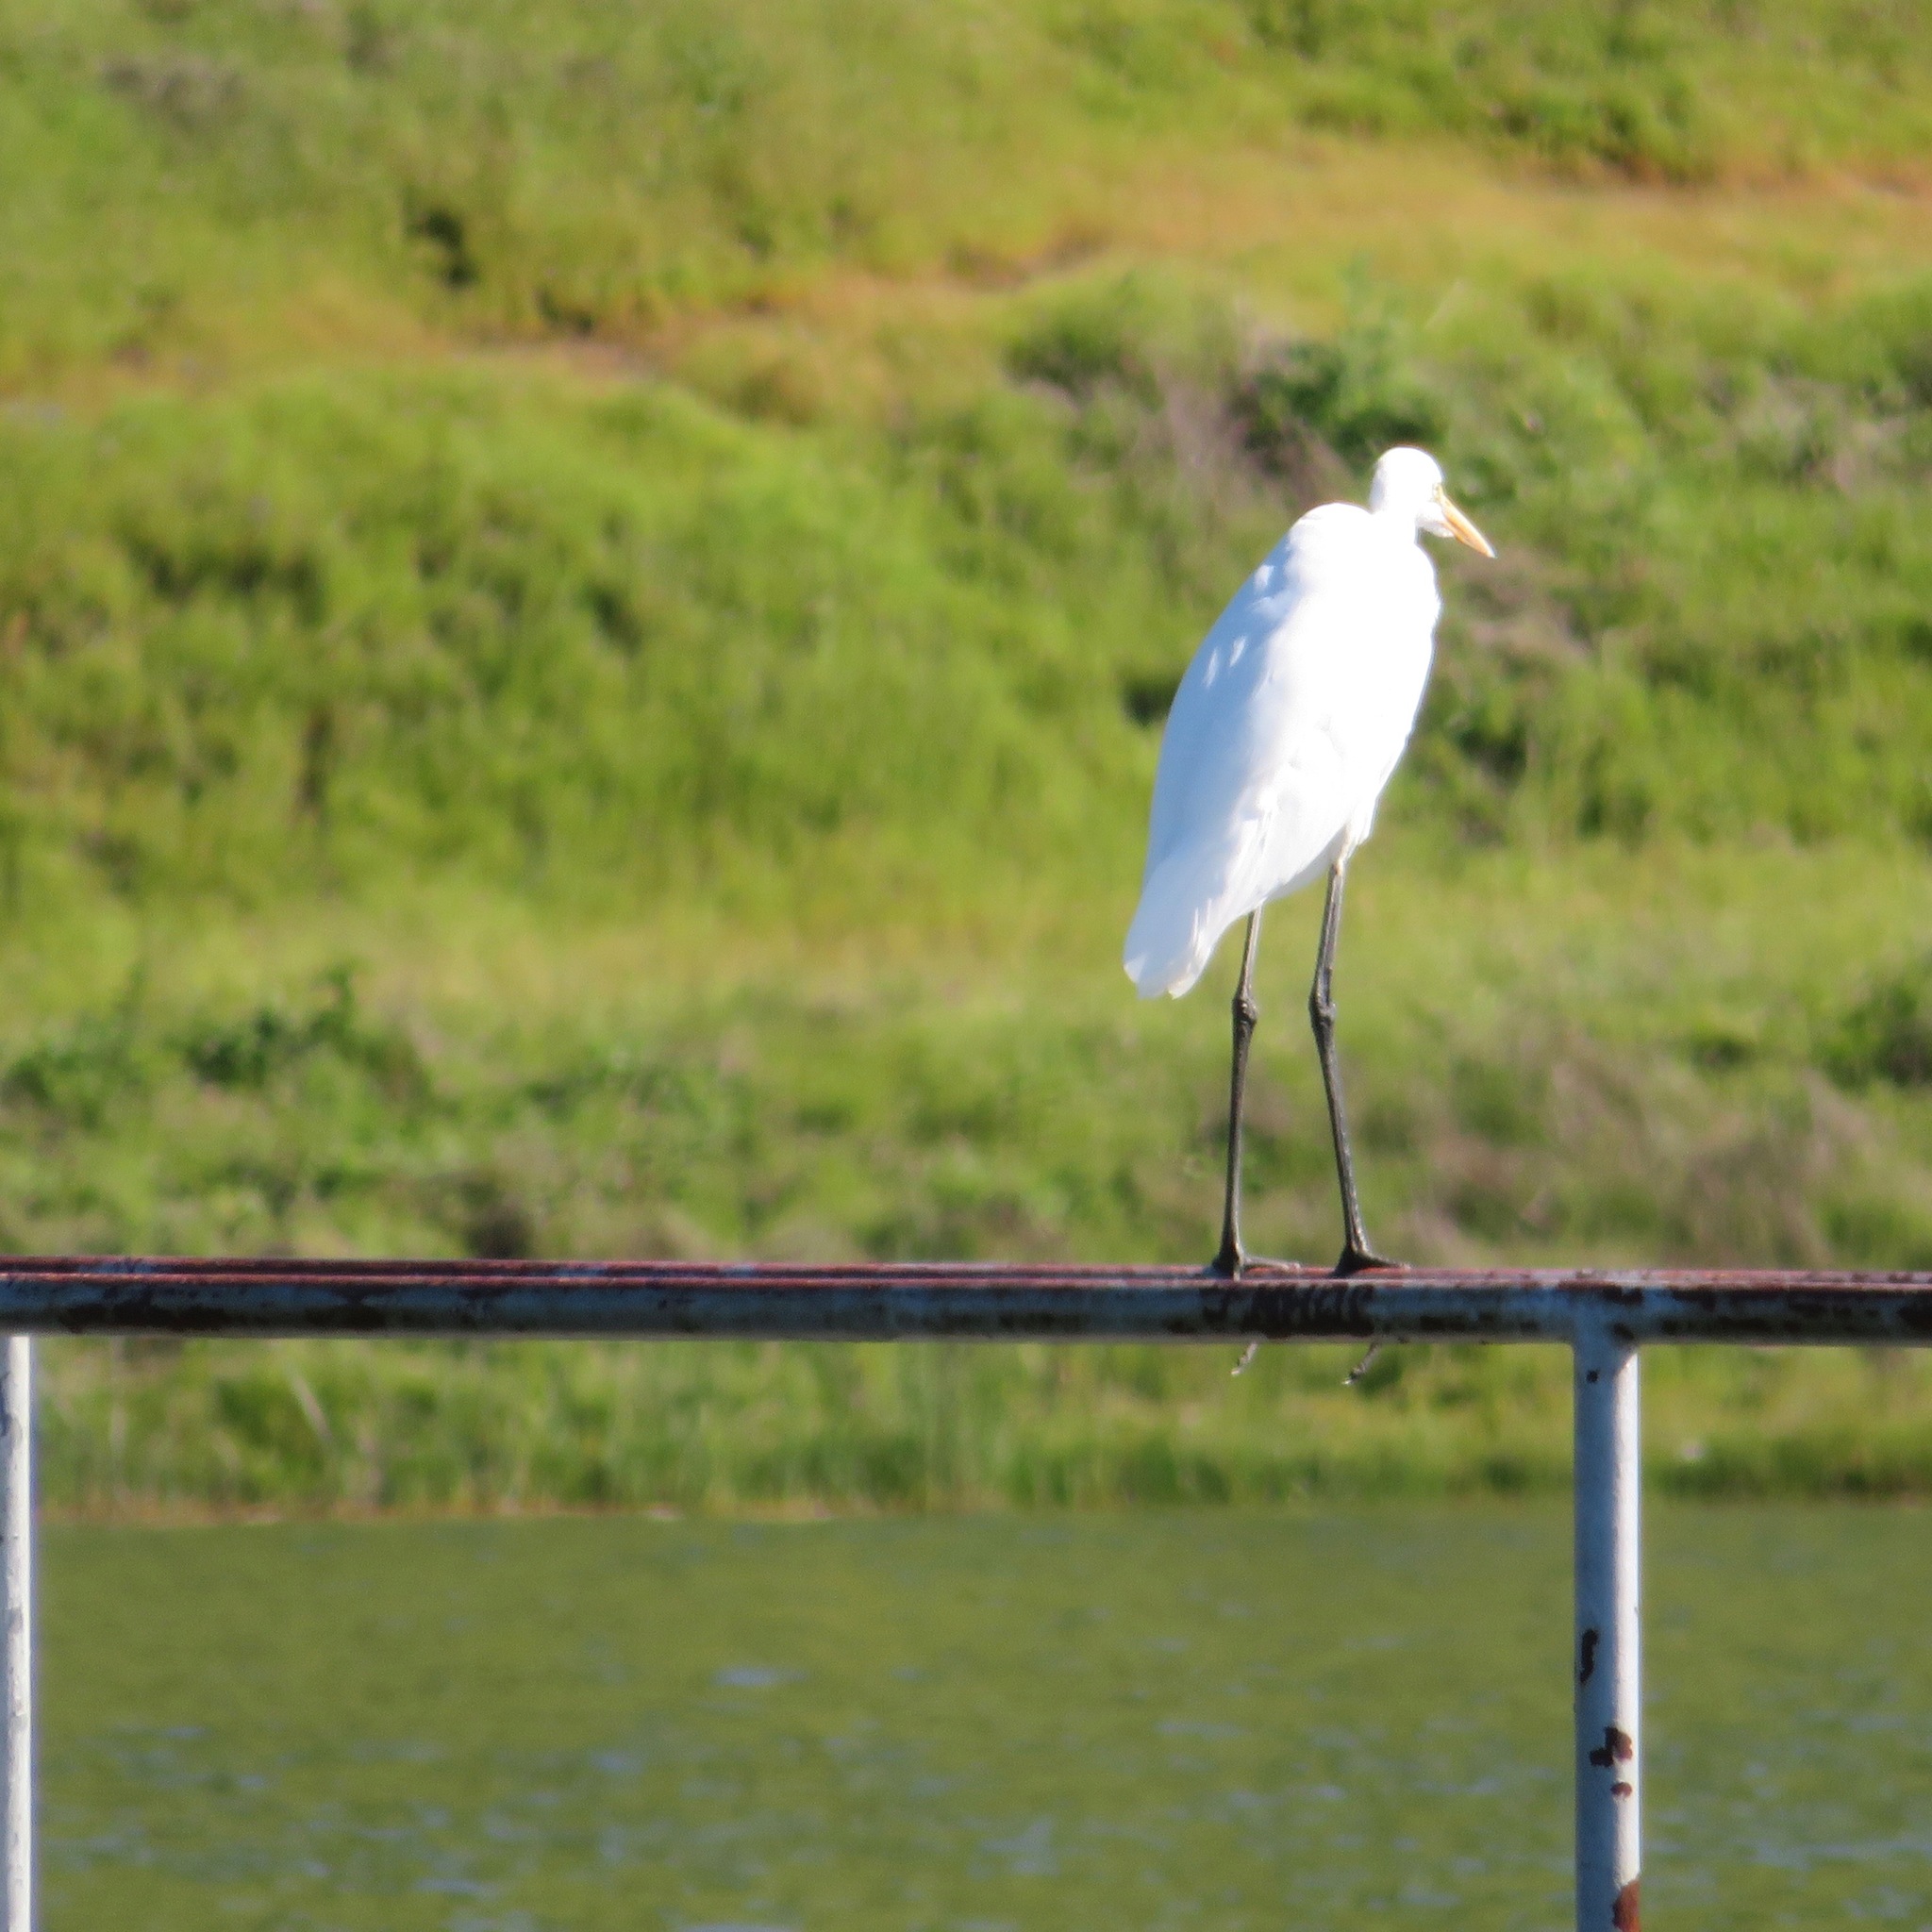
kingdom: Animalia
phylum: Chordata
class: Aves
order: Pelecaniformes
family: Ardeidae
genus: Ardea
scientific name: Ardea alba
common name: Great egret
